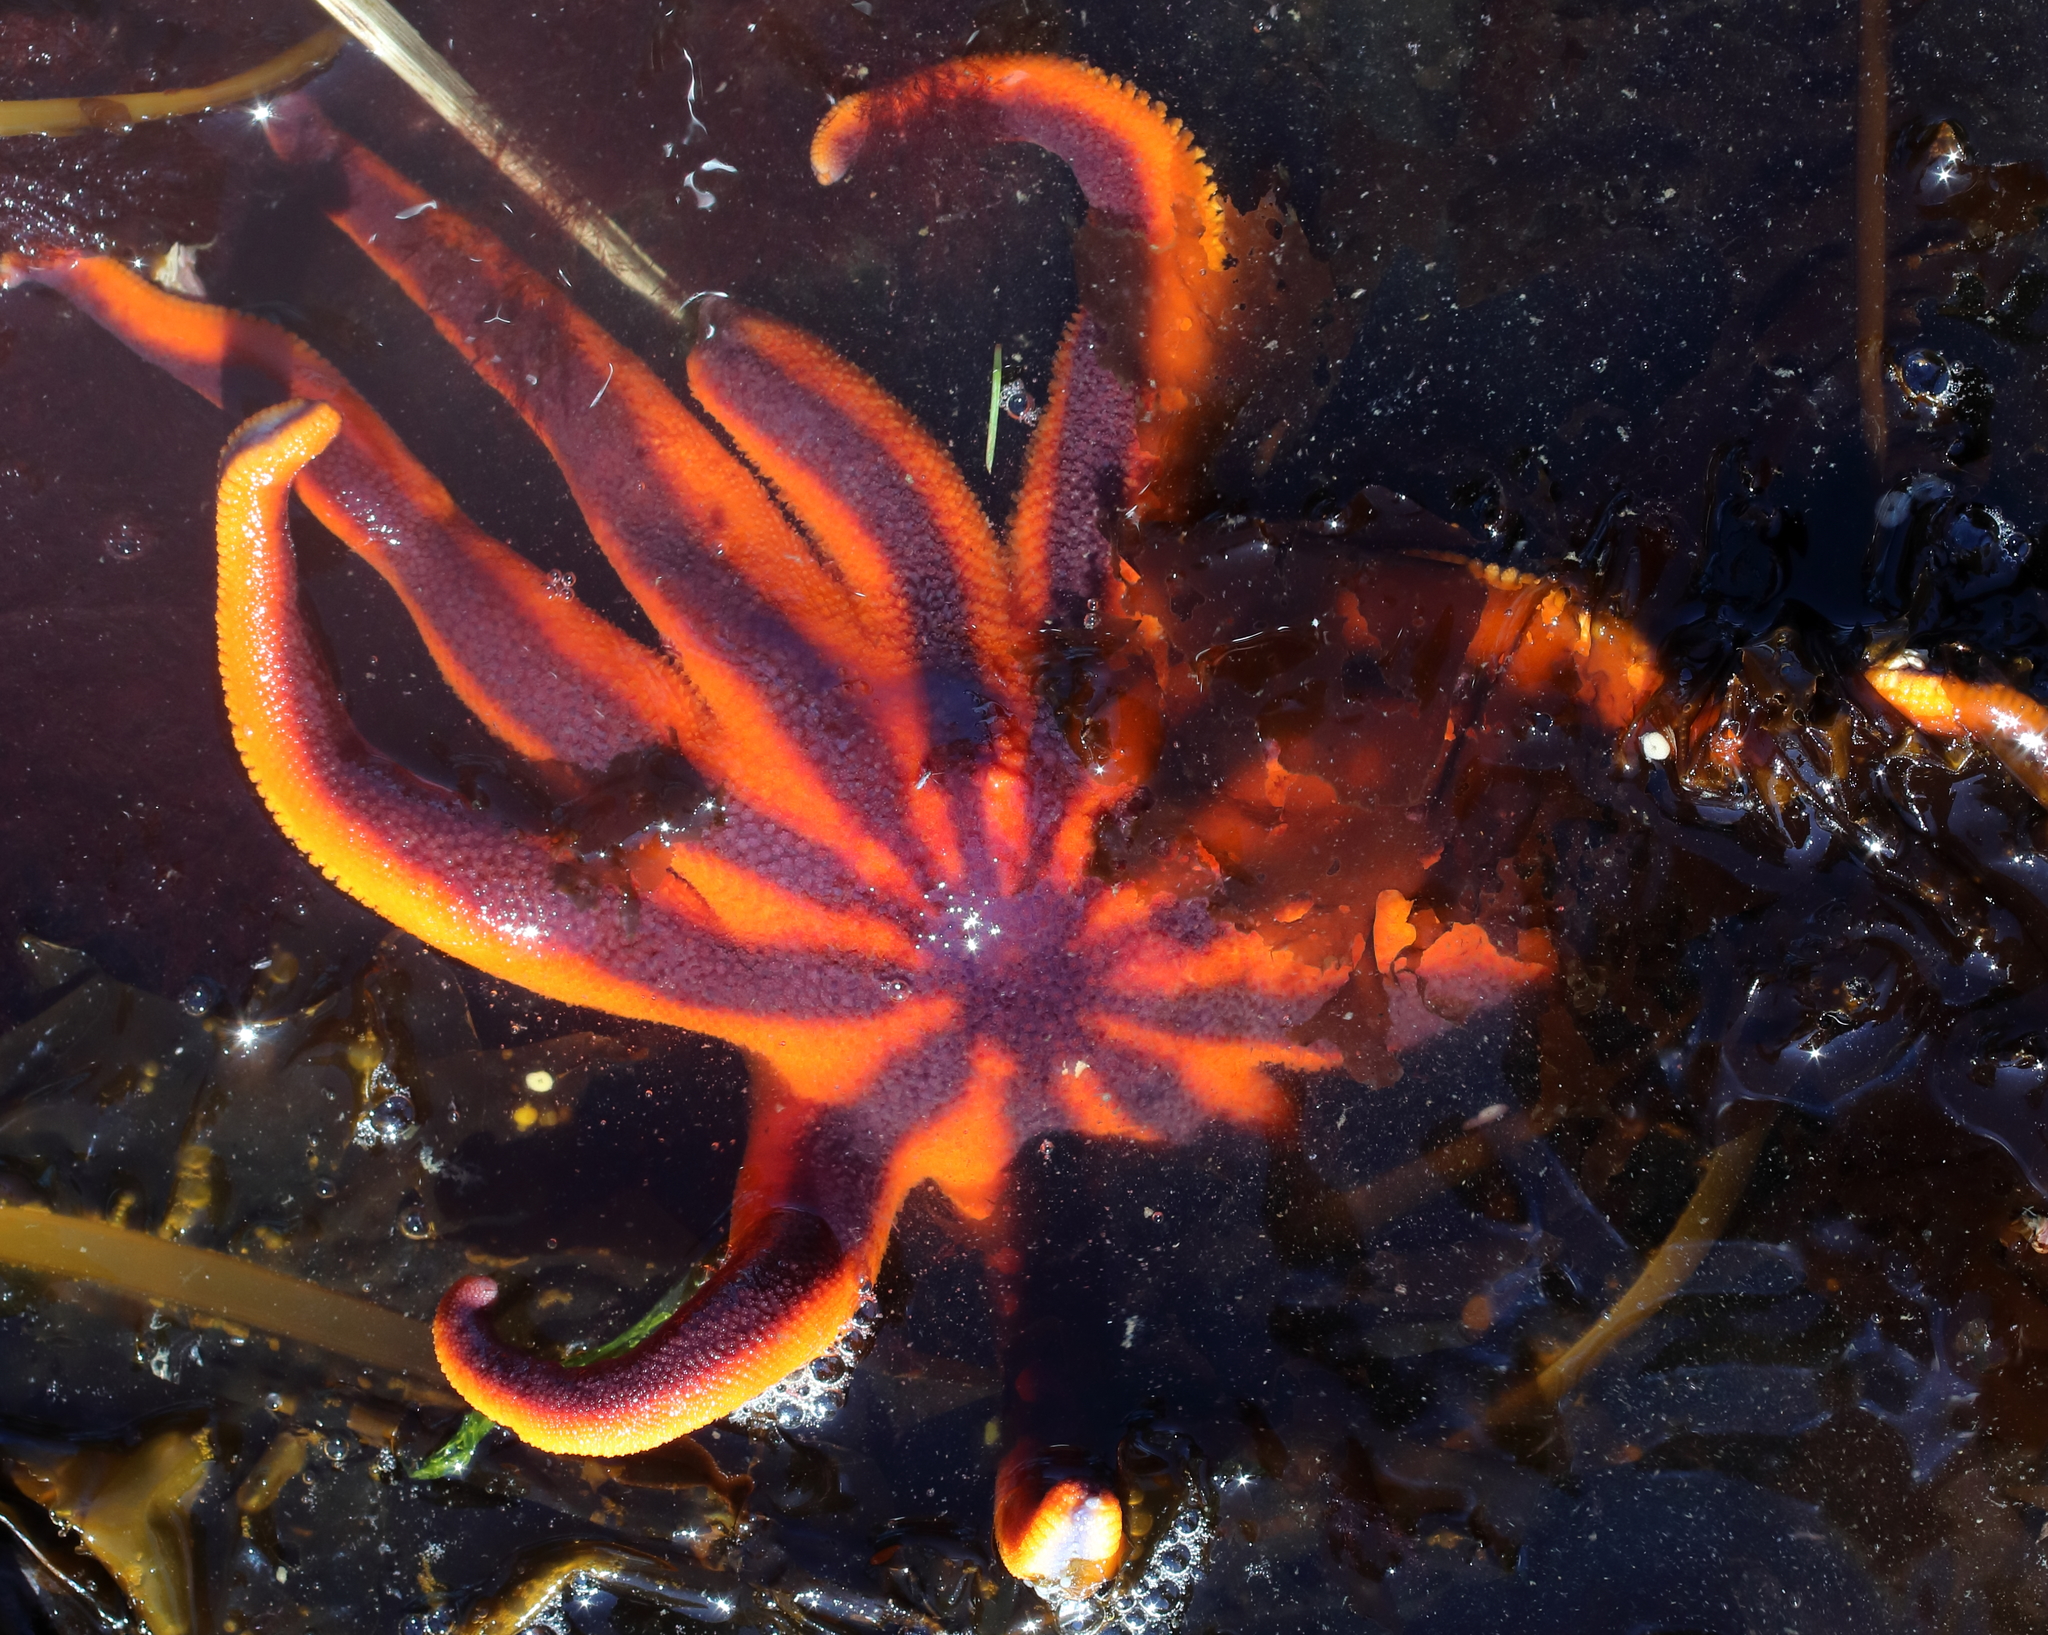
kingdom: Animalia
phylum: Echinodermata
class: Asteroidea
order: Valvatida
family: Solasteridae
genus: Solaster
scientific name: Solaster stimpsoni
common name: Orange sun star
